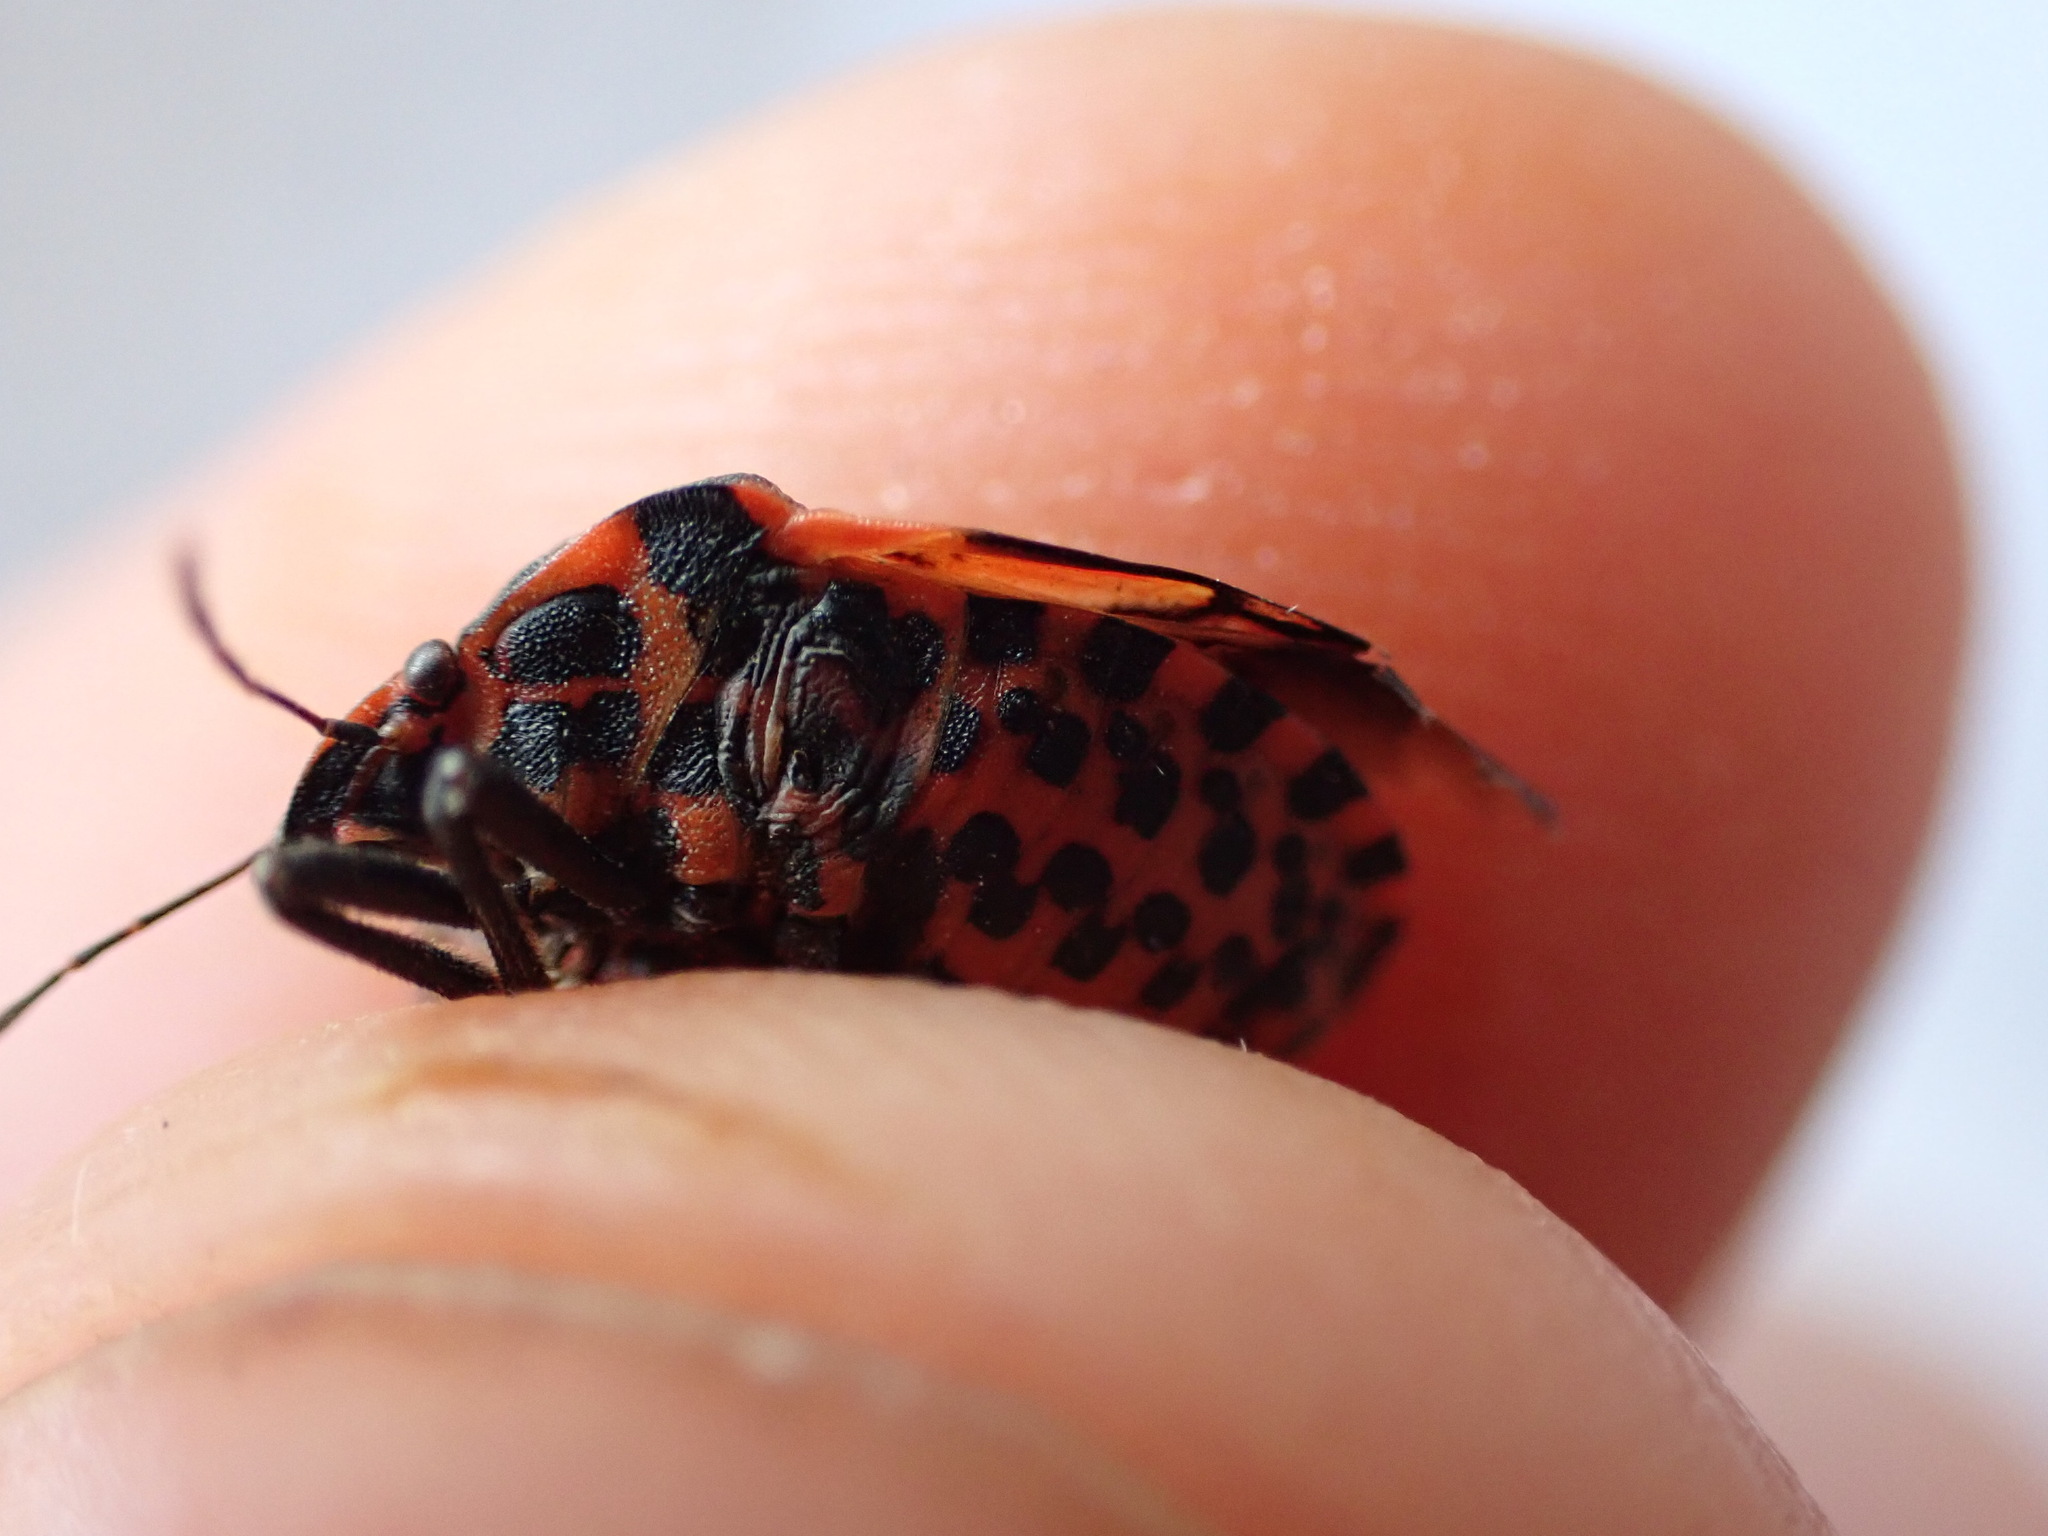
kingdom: Animalia
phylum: Arthropoda
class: Insecta
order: Hemiptera
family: Pentatomidae
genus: Graphosoma
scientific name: Graphosoma italicum
